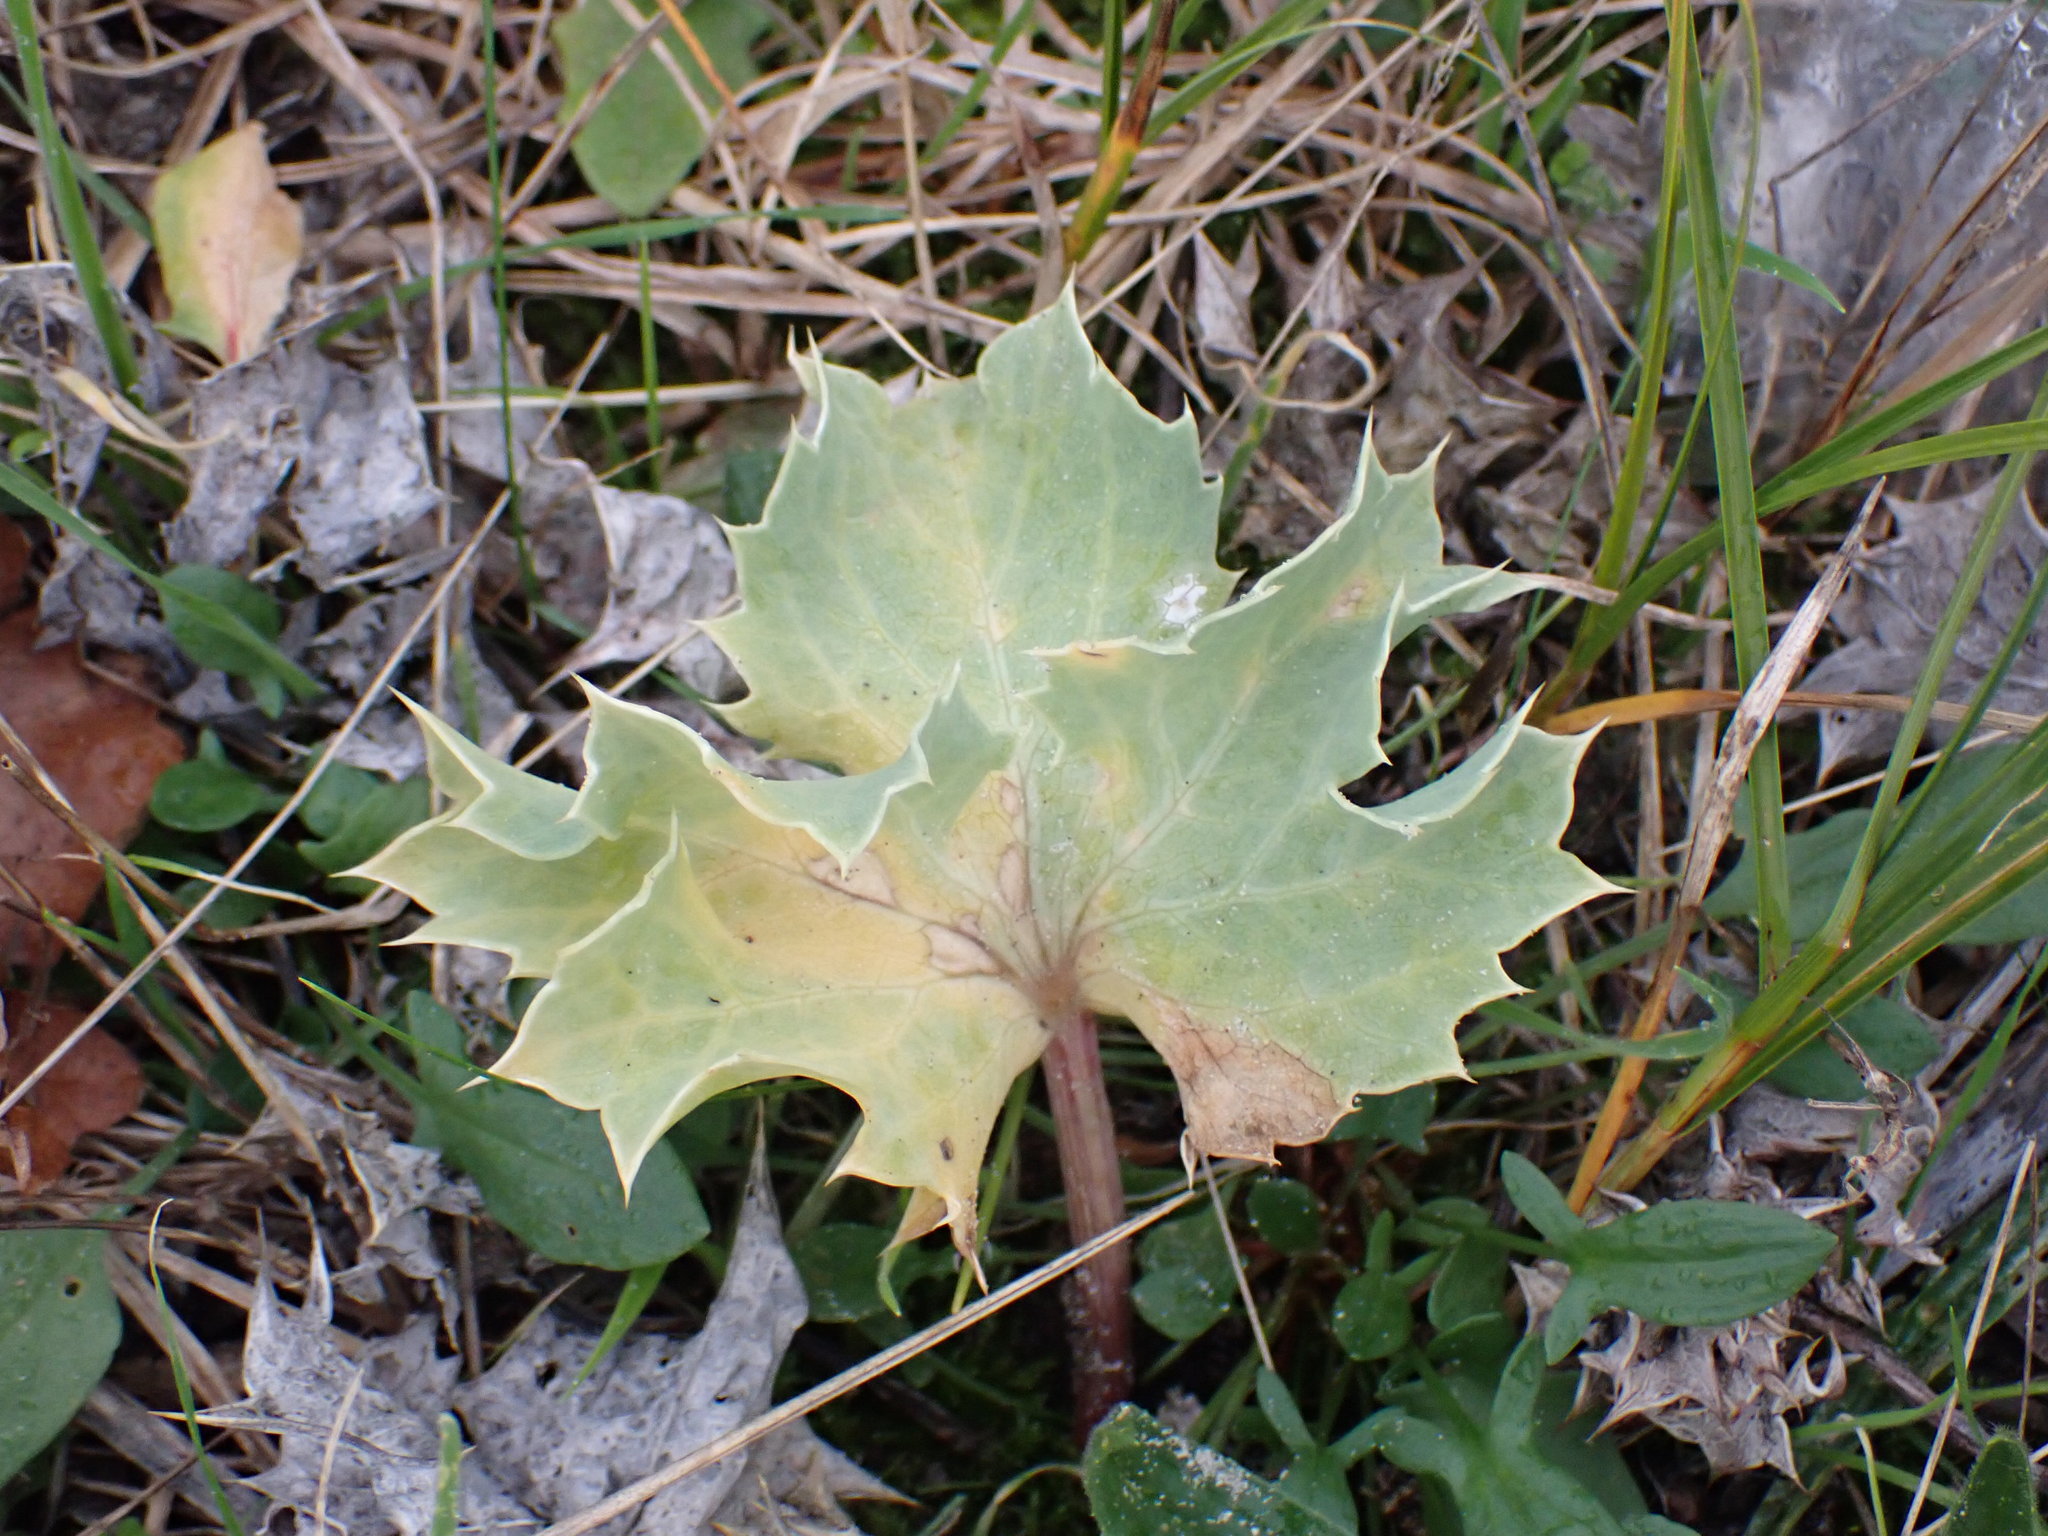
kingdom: Plantae
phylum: Tracheophyta
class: Magnoliopsida
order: Apiales
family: Apiaceae
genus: Eryngium
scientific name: Eryngium maritimum
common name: Sea-holly
